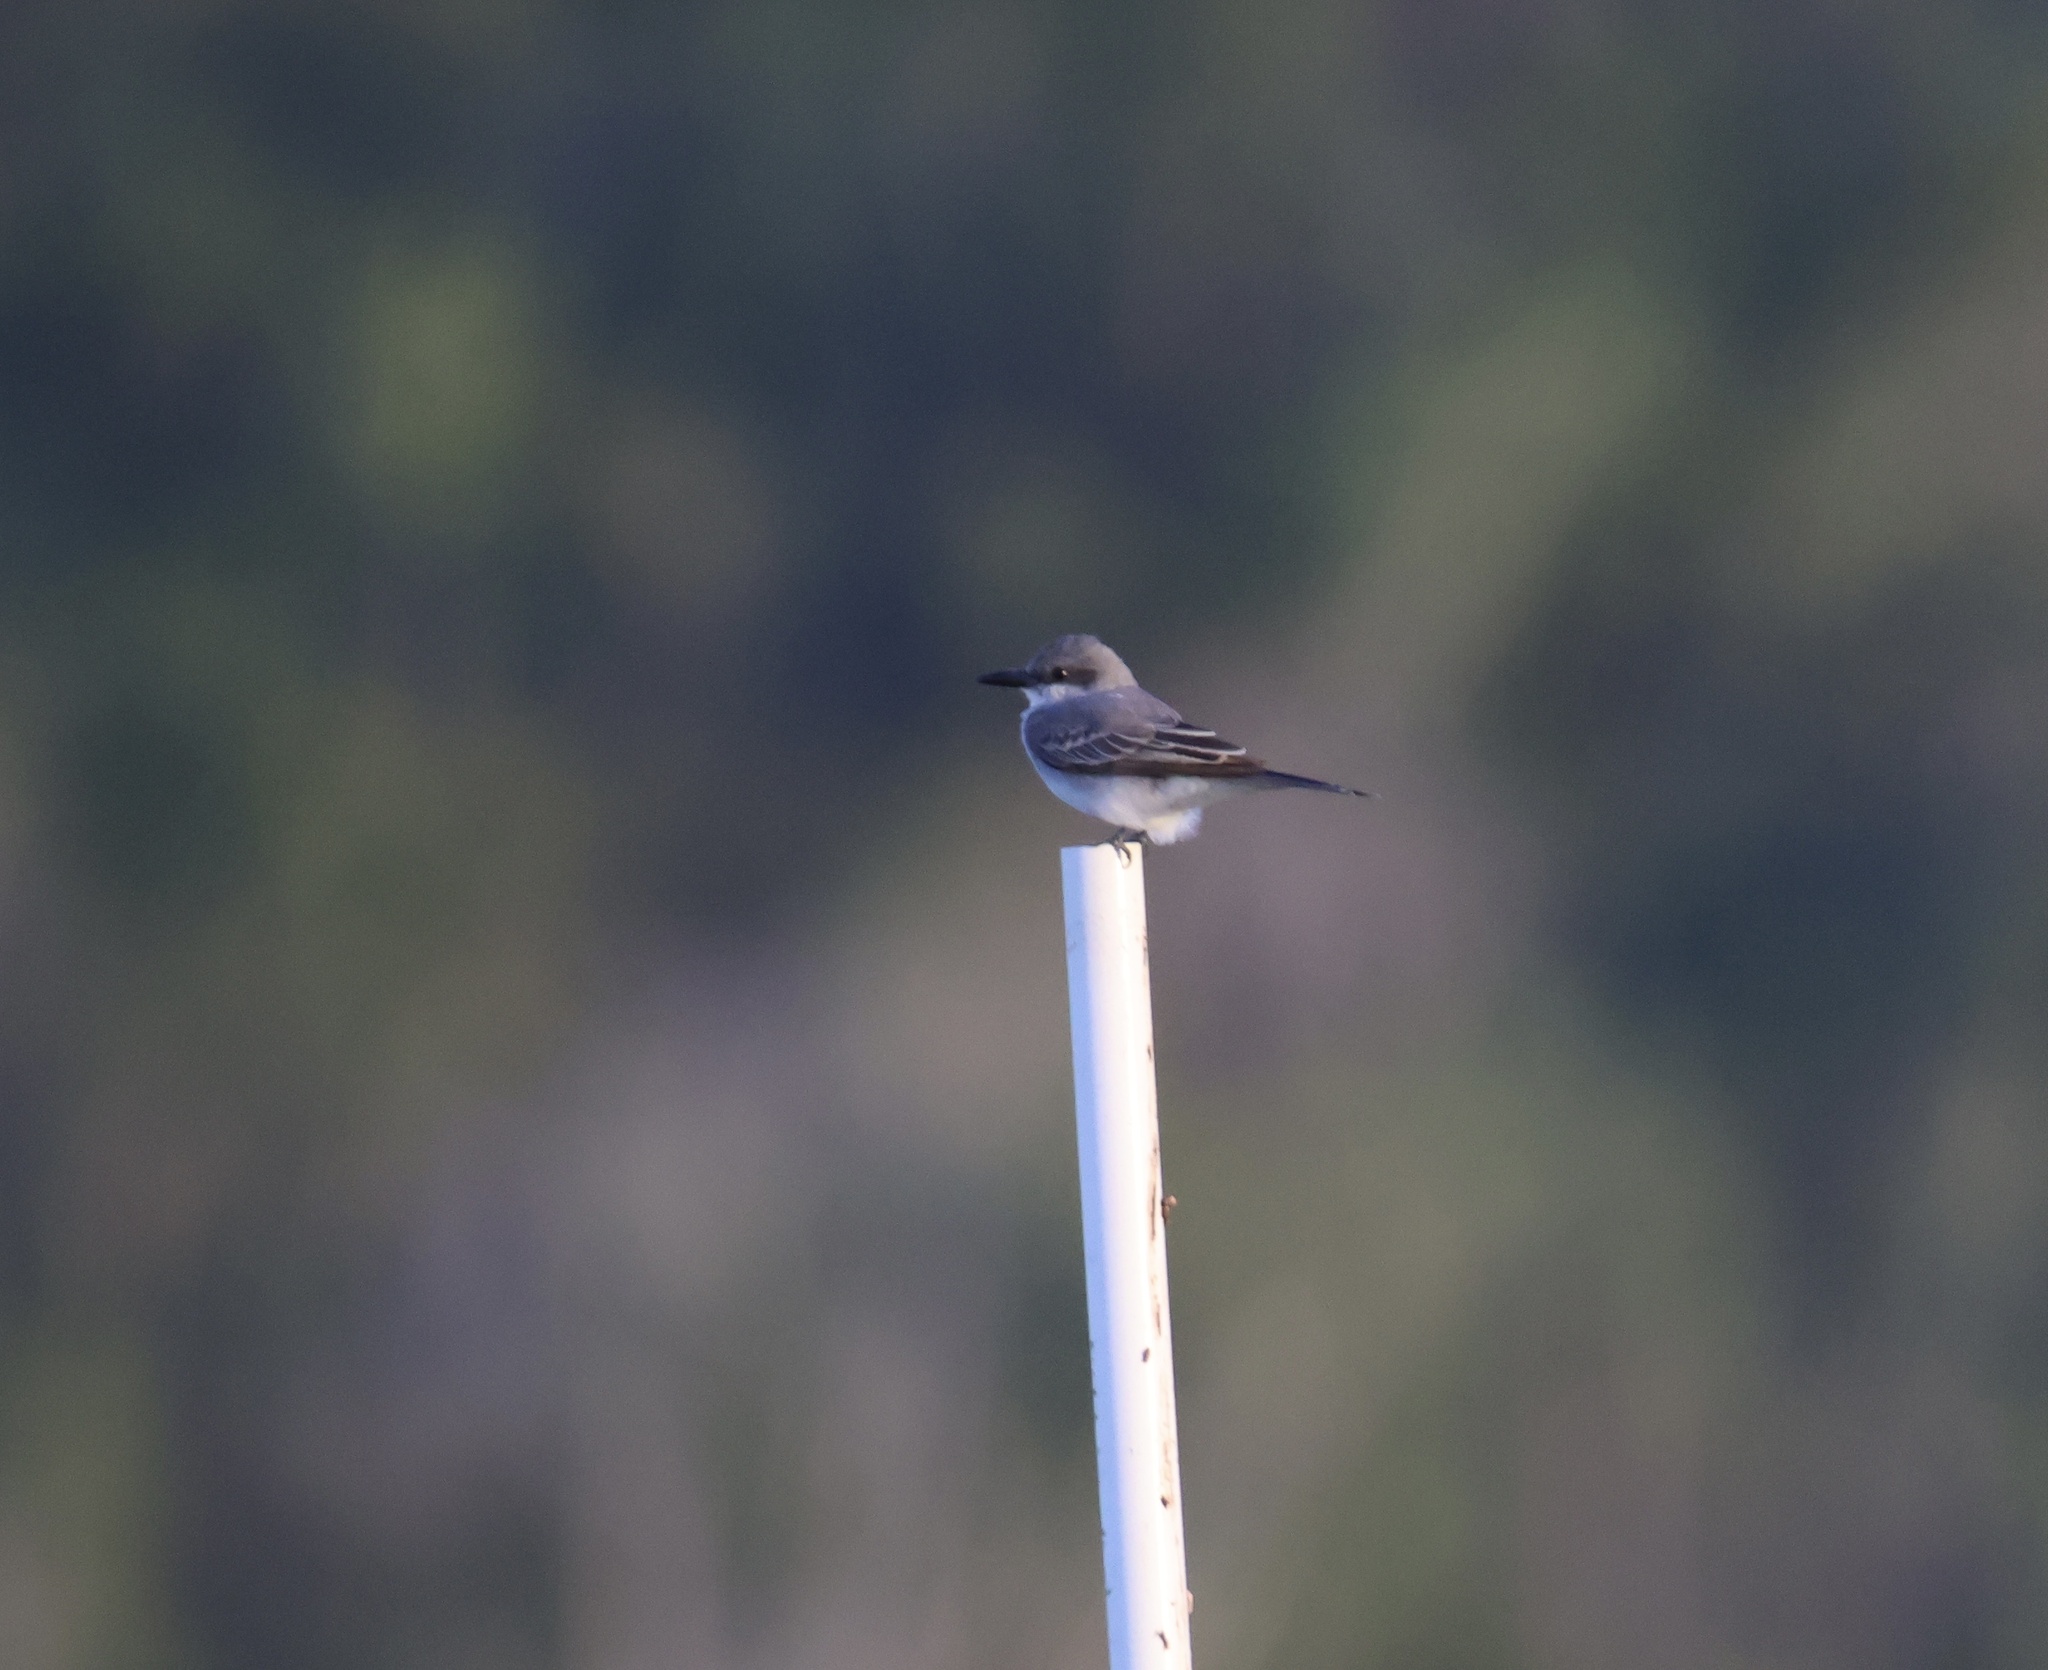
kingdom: Animalia
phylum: Chordata
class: Aves
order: Passeriformes
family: Tyrannidae
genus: Tyrannus
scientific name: Tyrannus dominicensis
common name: Gray kingbird
